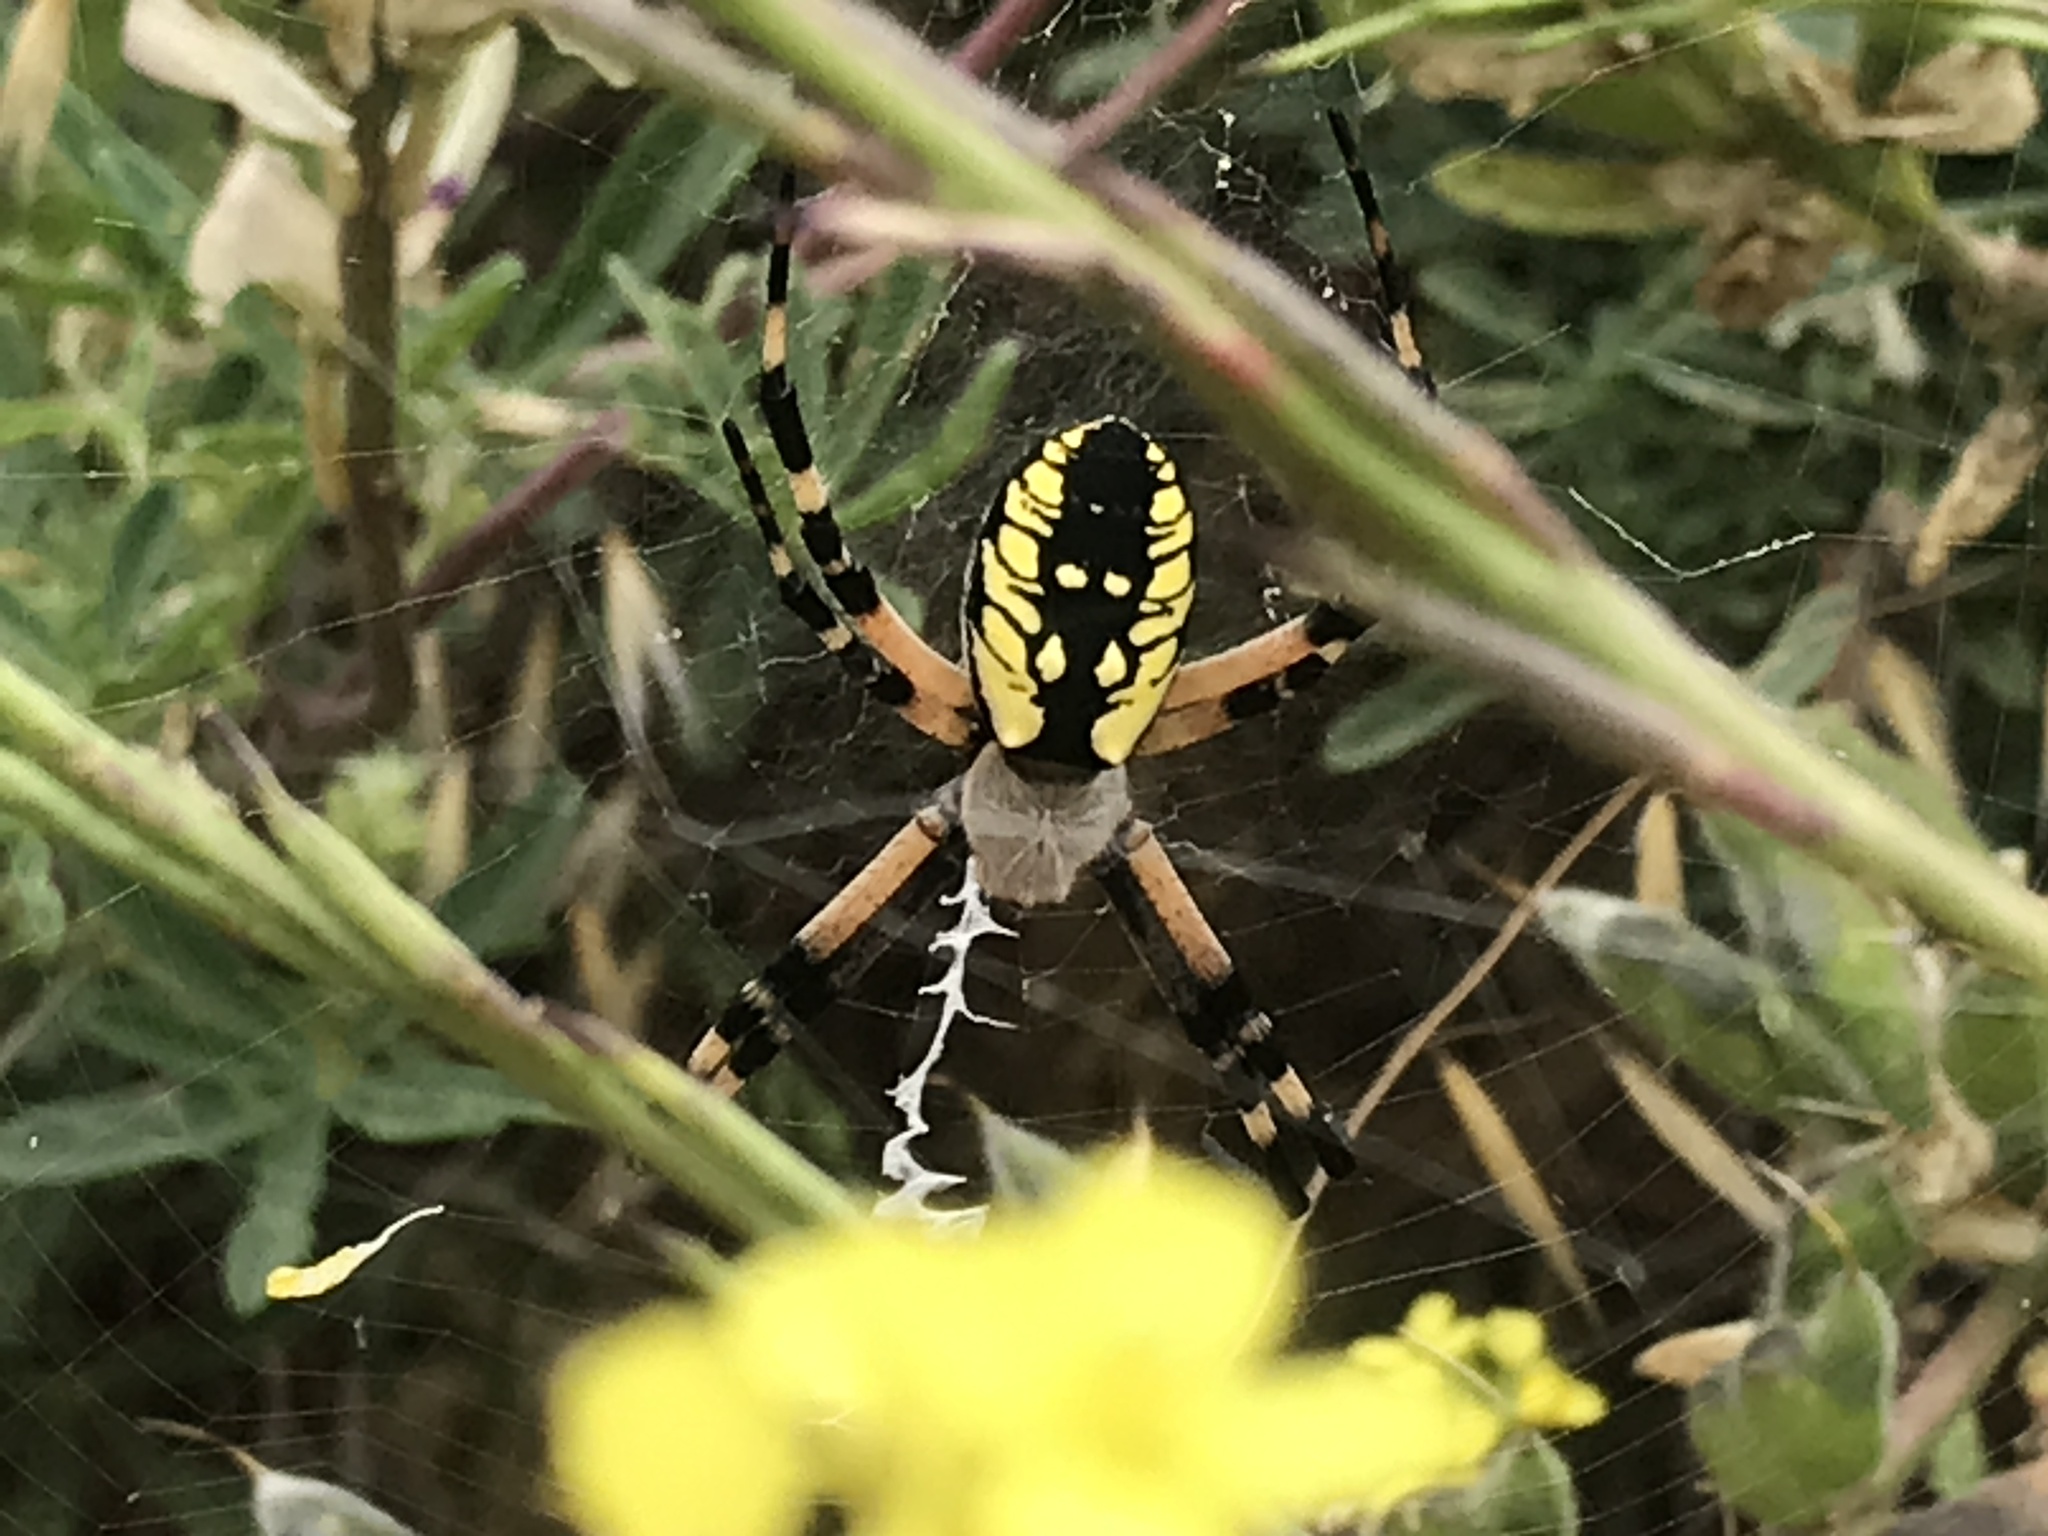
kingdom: Animalia
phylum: Arthropoda
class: Arachnida
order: Araneae
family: Araneidae
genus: Argiope
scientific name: Argiope aurantia
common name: Orb weavers
